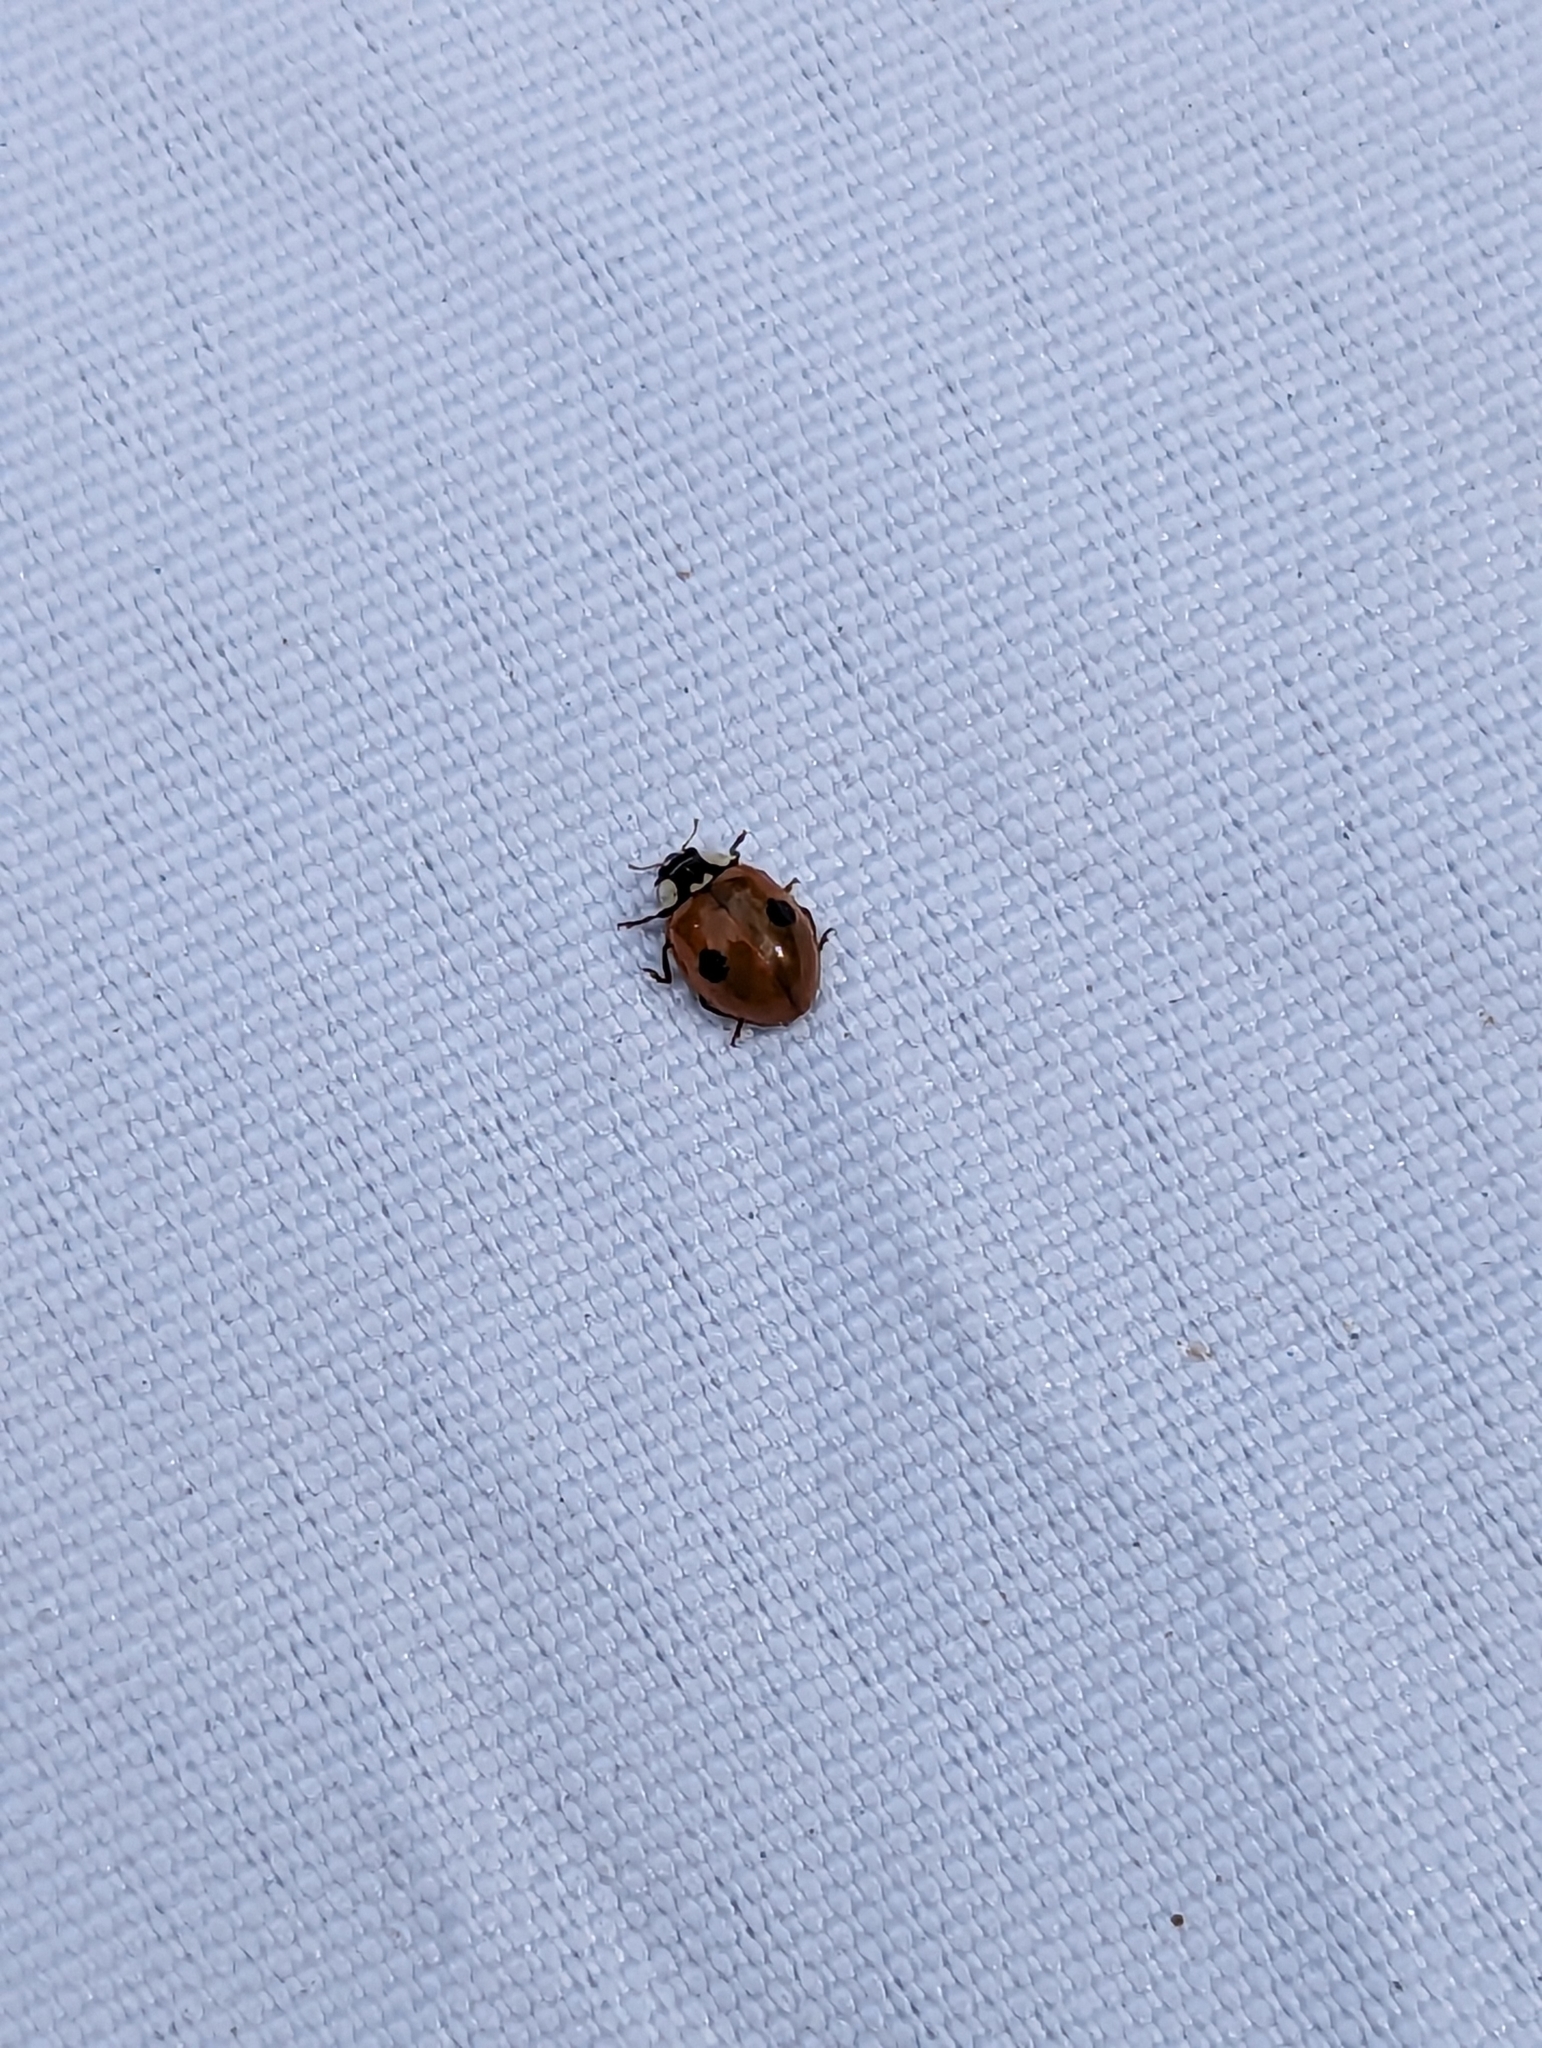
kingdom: Animalia
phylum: Arthropoda
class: Insecta
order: Coleoptera
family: Coccinellidae
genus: Adalia
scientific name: Adalia bipunctata
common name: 2-spot ladybird
